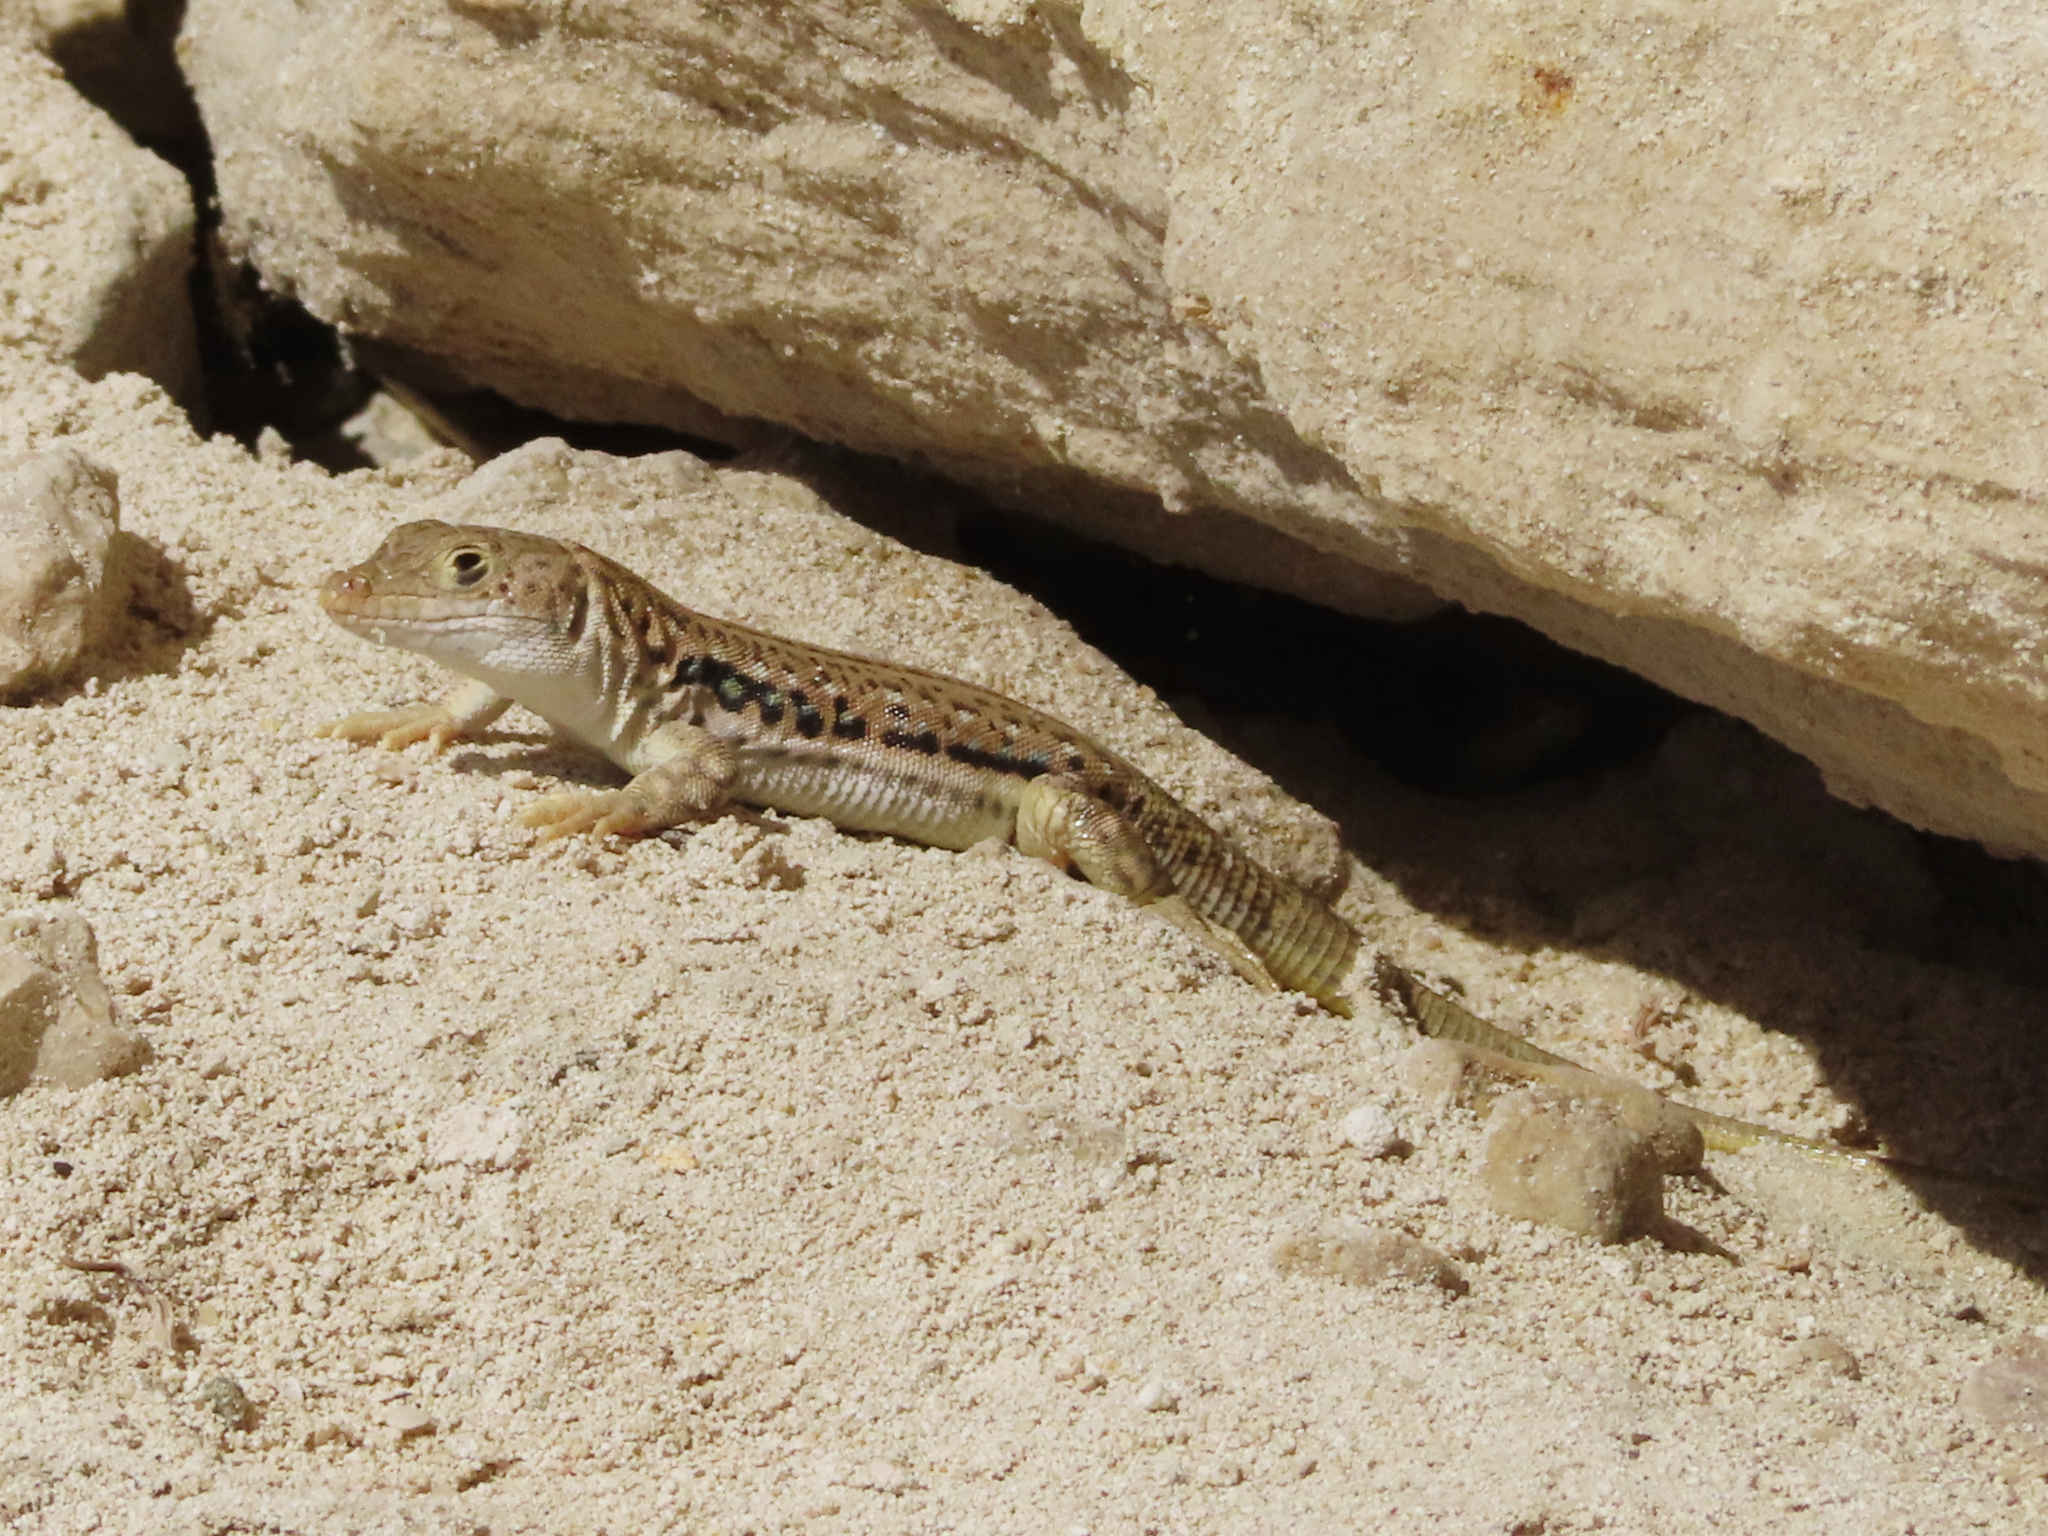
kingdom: Animalia
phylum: Chordata
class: Squamata
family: Lacertidae
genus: Eremias
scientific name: Eremias velox
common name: Central asian racerunner
